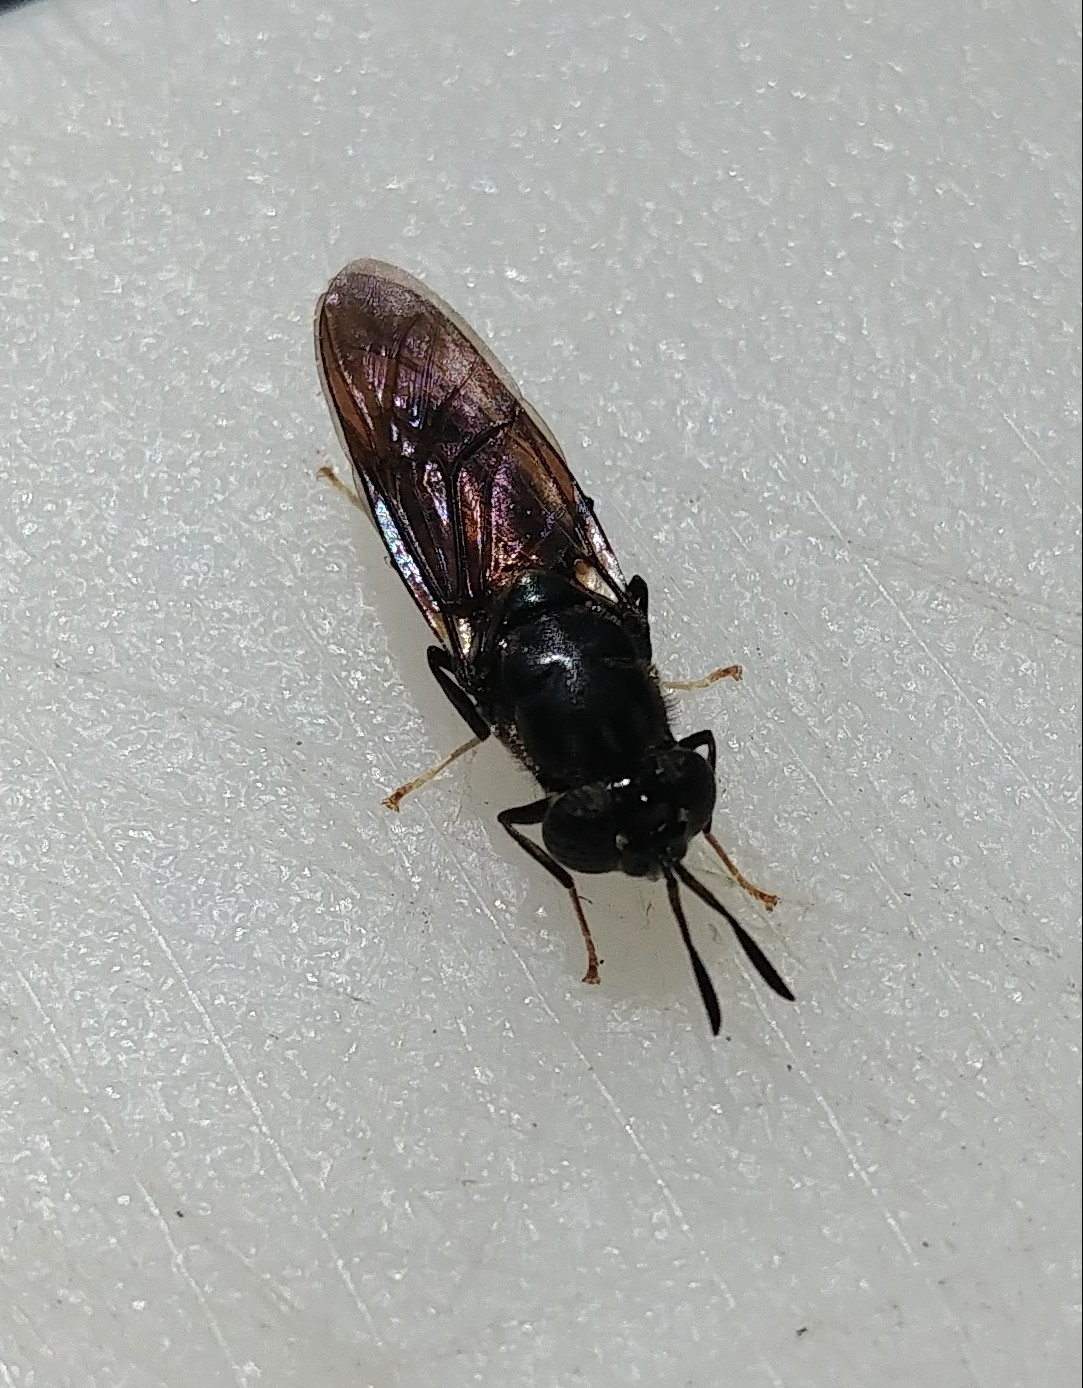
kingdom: Animalia
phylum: Arthropoda
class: Insecta
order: Diptera
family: Stratiomyidae
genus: Hermetia
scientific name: Hermetia illucens
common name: Black soldier fly
